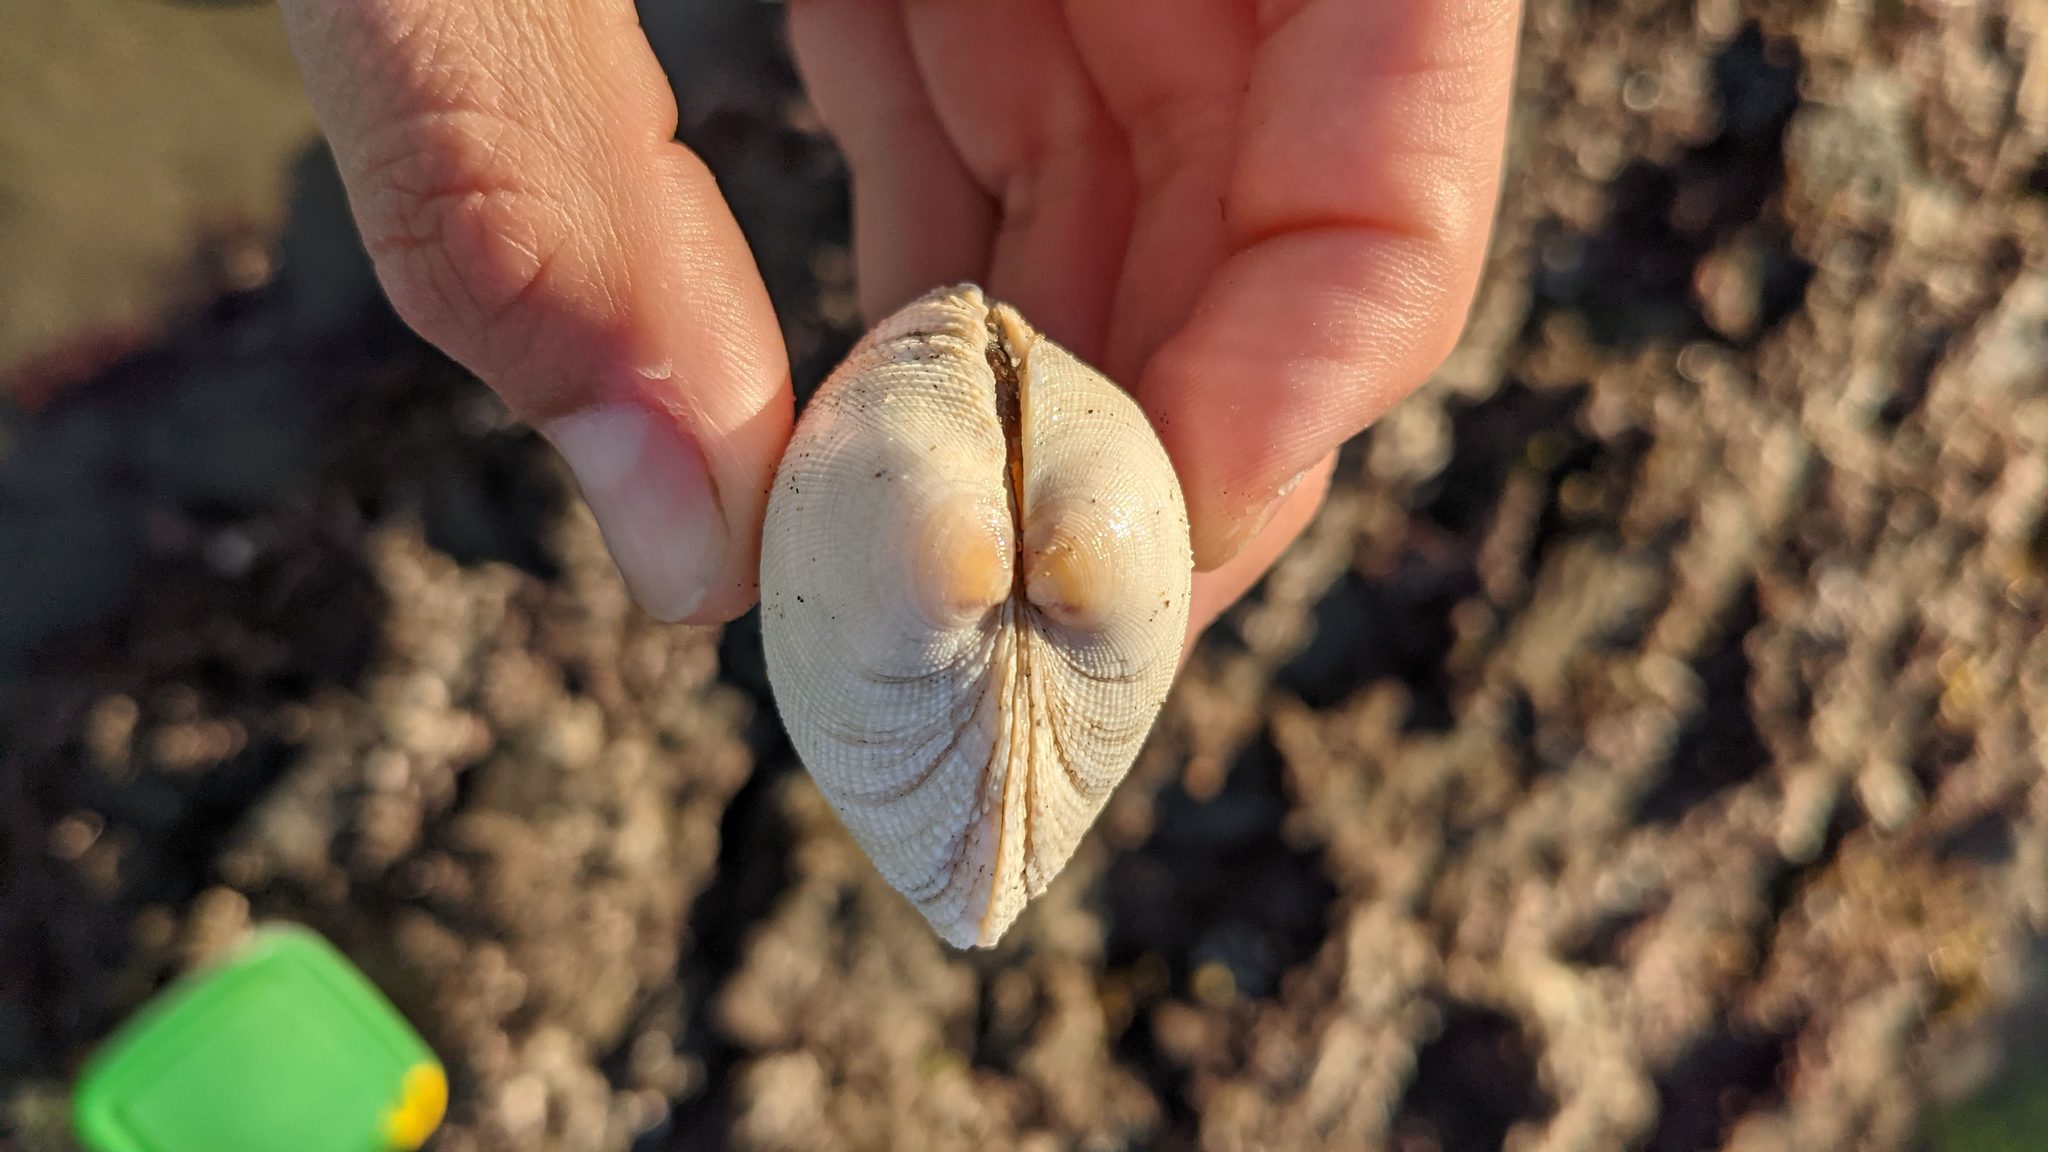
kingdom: Animalia
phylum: Mollusca
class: Bivalvia
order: Venerida
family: Veneridae
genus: Leukoma
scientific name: Leukoma staminea
